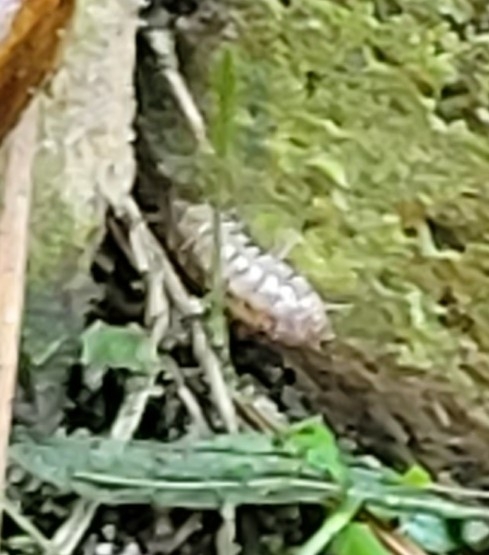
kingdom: Animalia
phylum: Arthropoda
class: Malacostraca
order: Isopoda
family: Armadillidiidae
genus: Armadillidium
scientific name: Armadillidium nasatum
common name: Isopod
